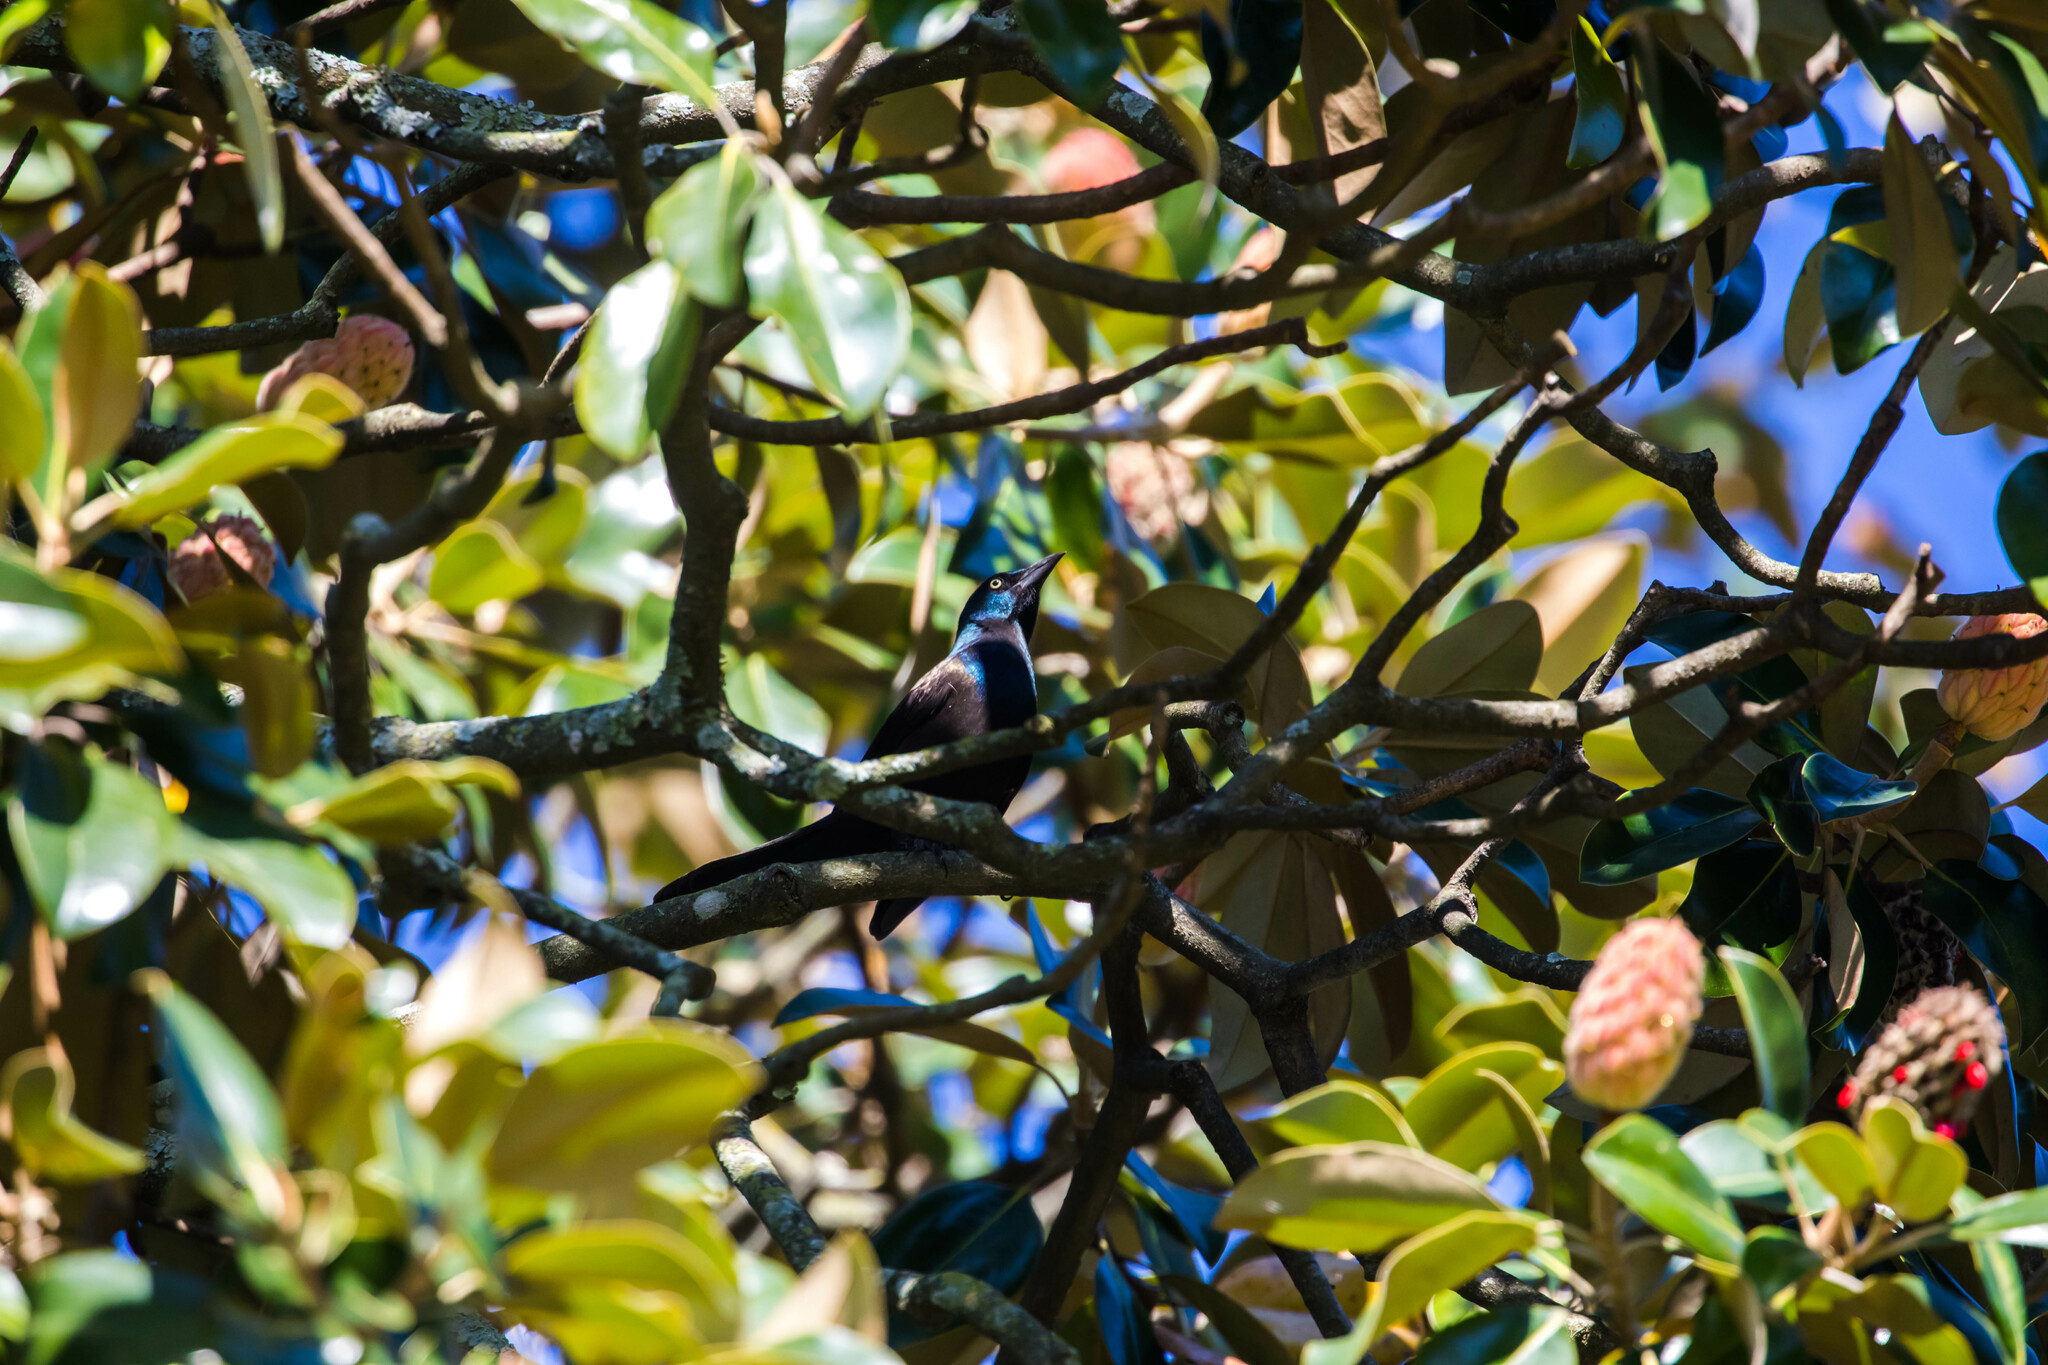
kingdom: Animalia
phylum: Chordata
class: Aves
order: Passeriformes
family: Icteridae
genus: Quiscalus
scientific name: Quiscalus quiscula
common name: Common grackle
